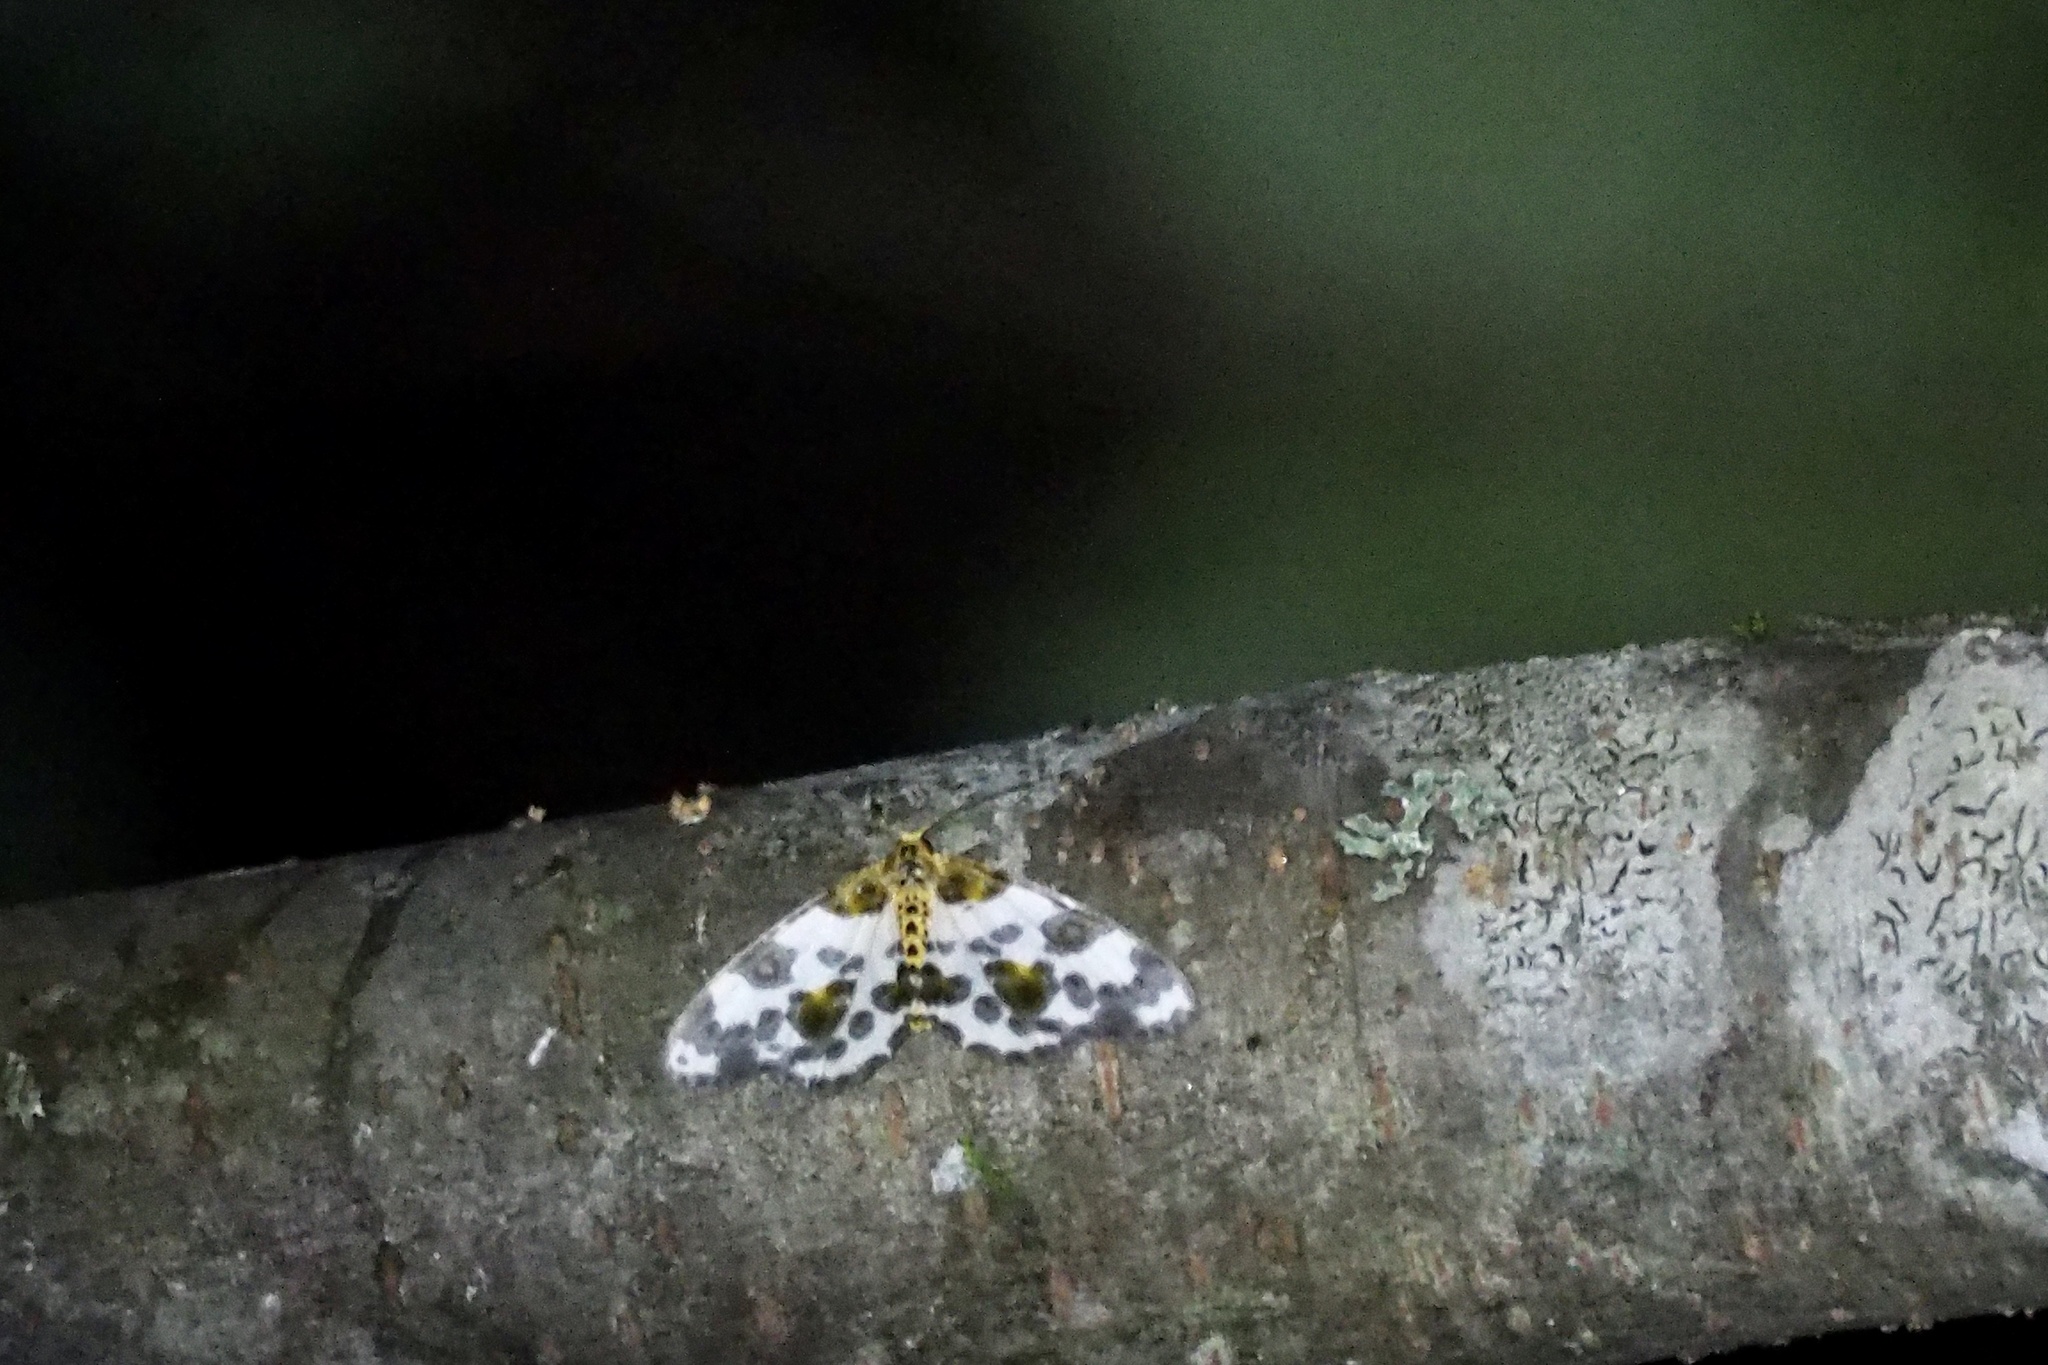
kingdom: Animalia
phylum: Arthropoda
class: Insecta
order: Lepidoptera
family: Geometridae
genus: Abraxas
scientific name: Abraxas niphonibia
